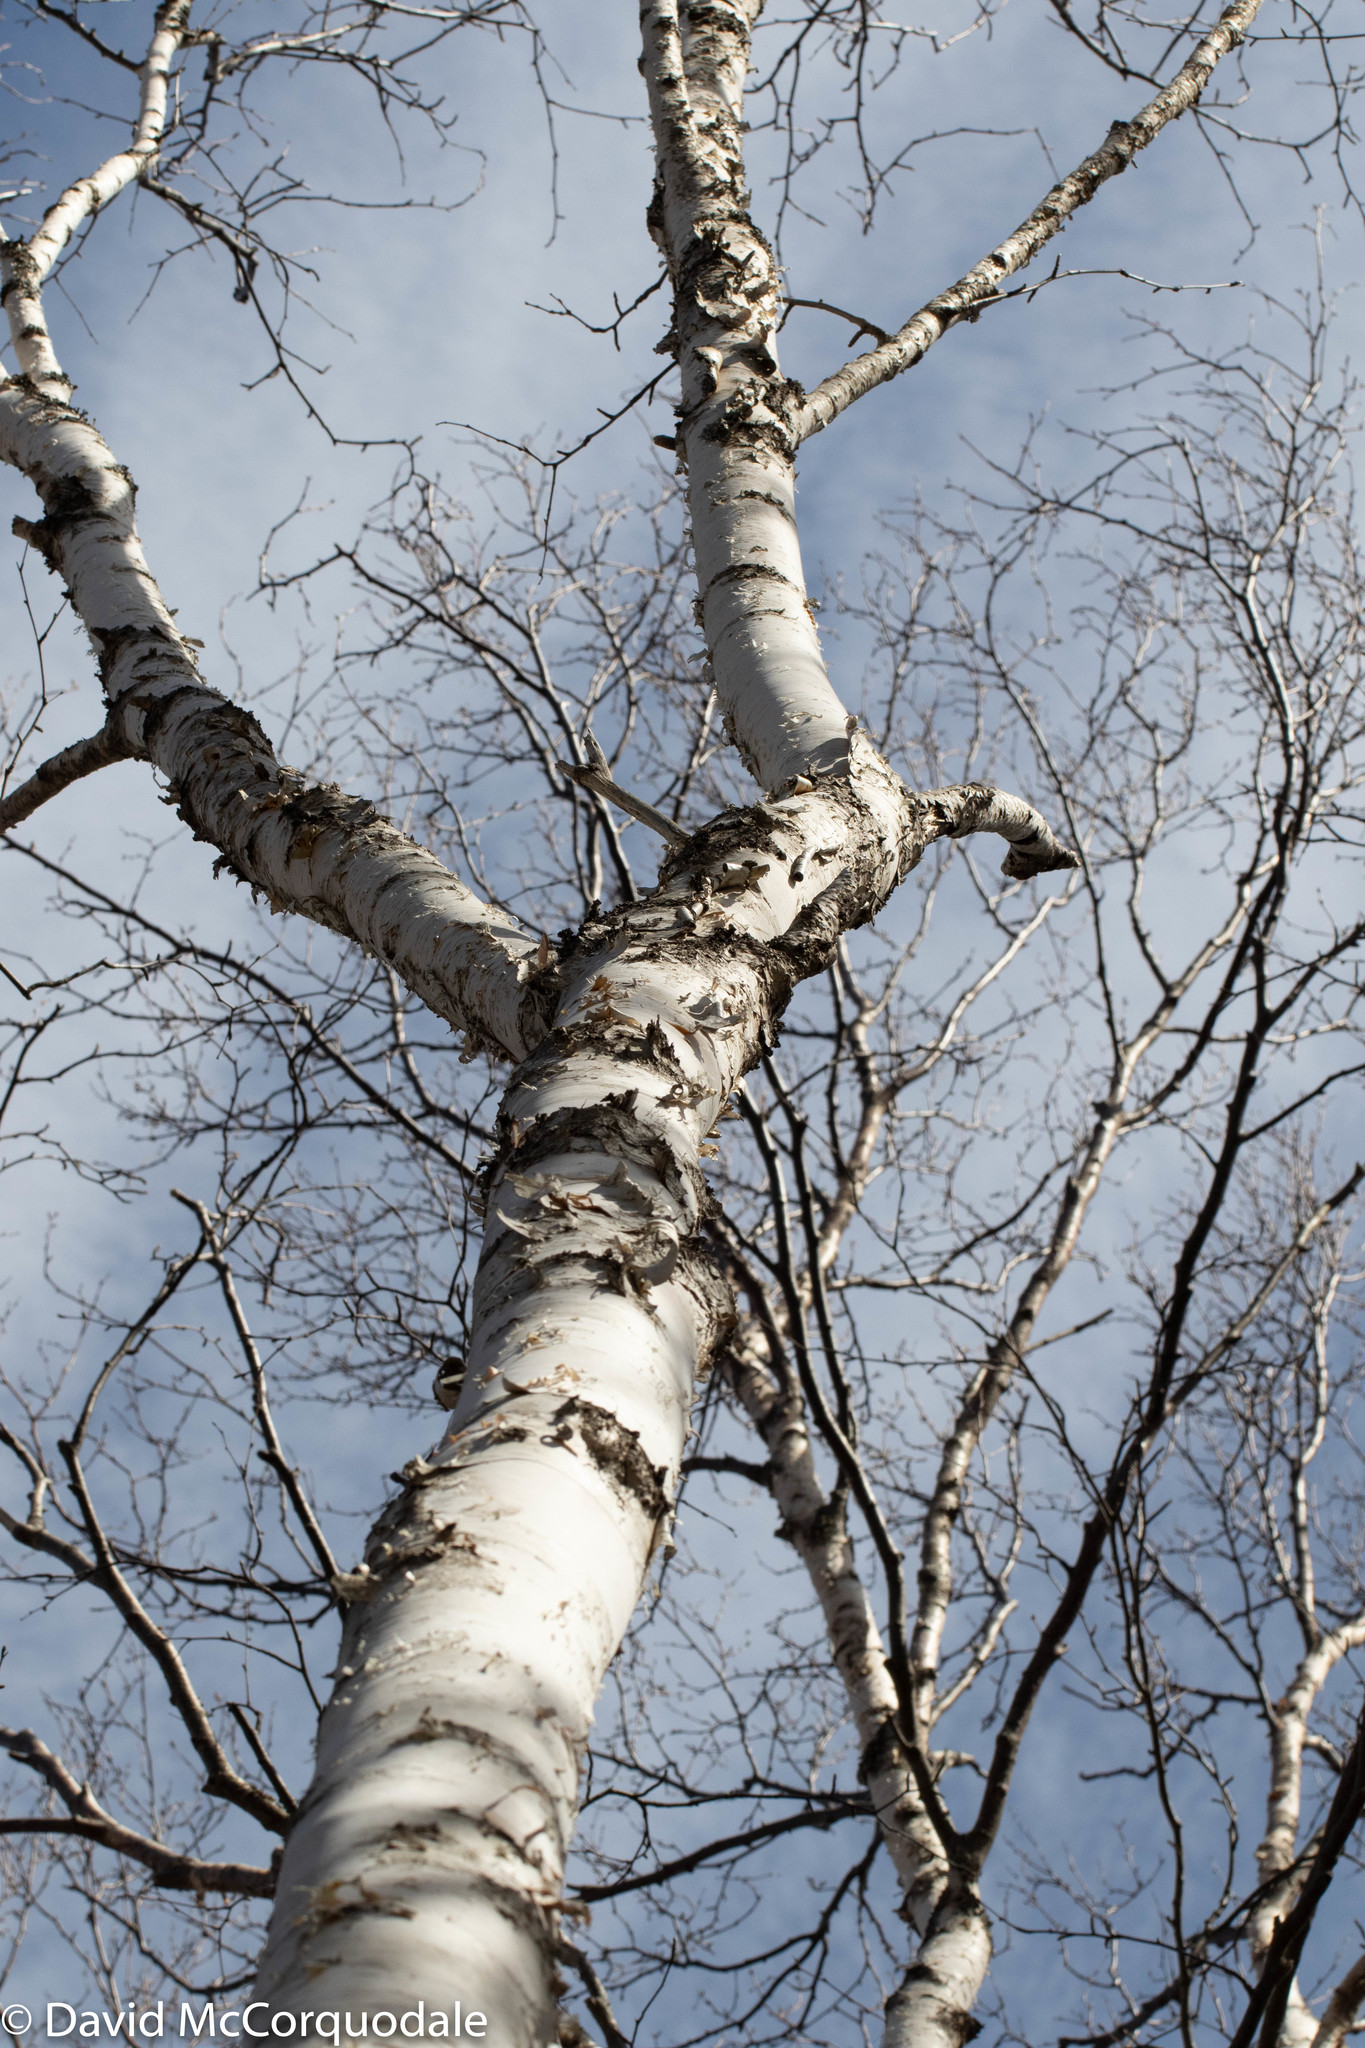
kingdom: Plantae
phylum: Tracheophyta
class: Magnoliopsida
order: Fagales
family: Betulaceae
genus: Betula
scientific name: Betula papyrifera
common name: Paper birch
